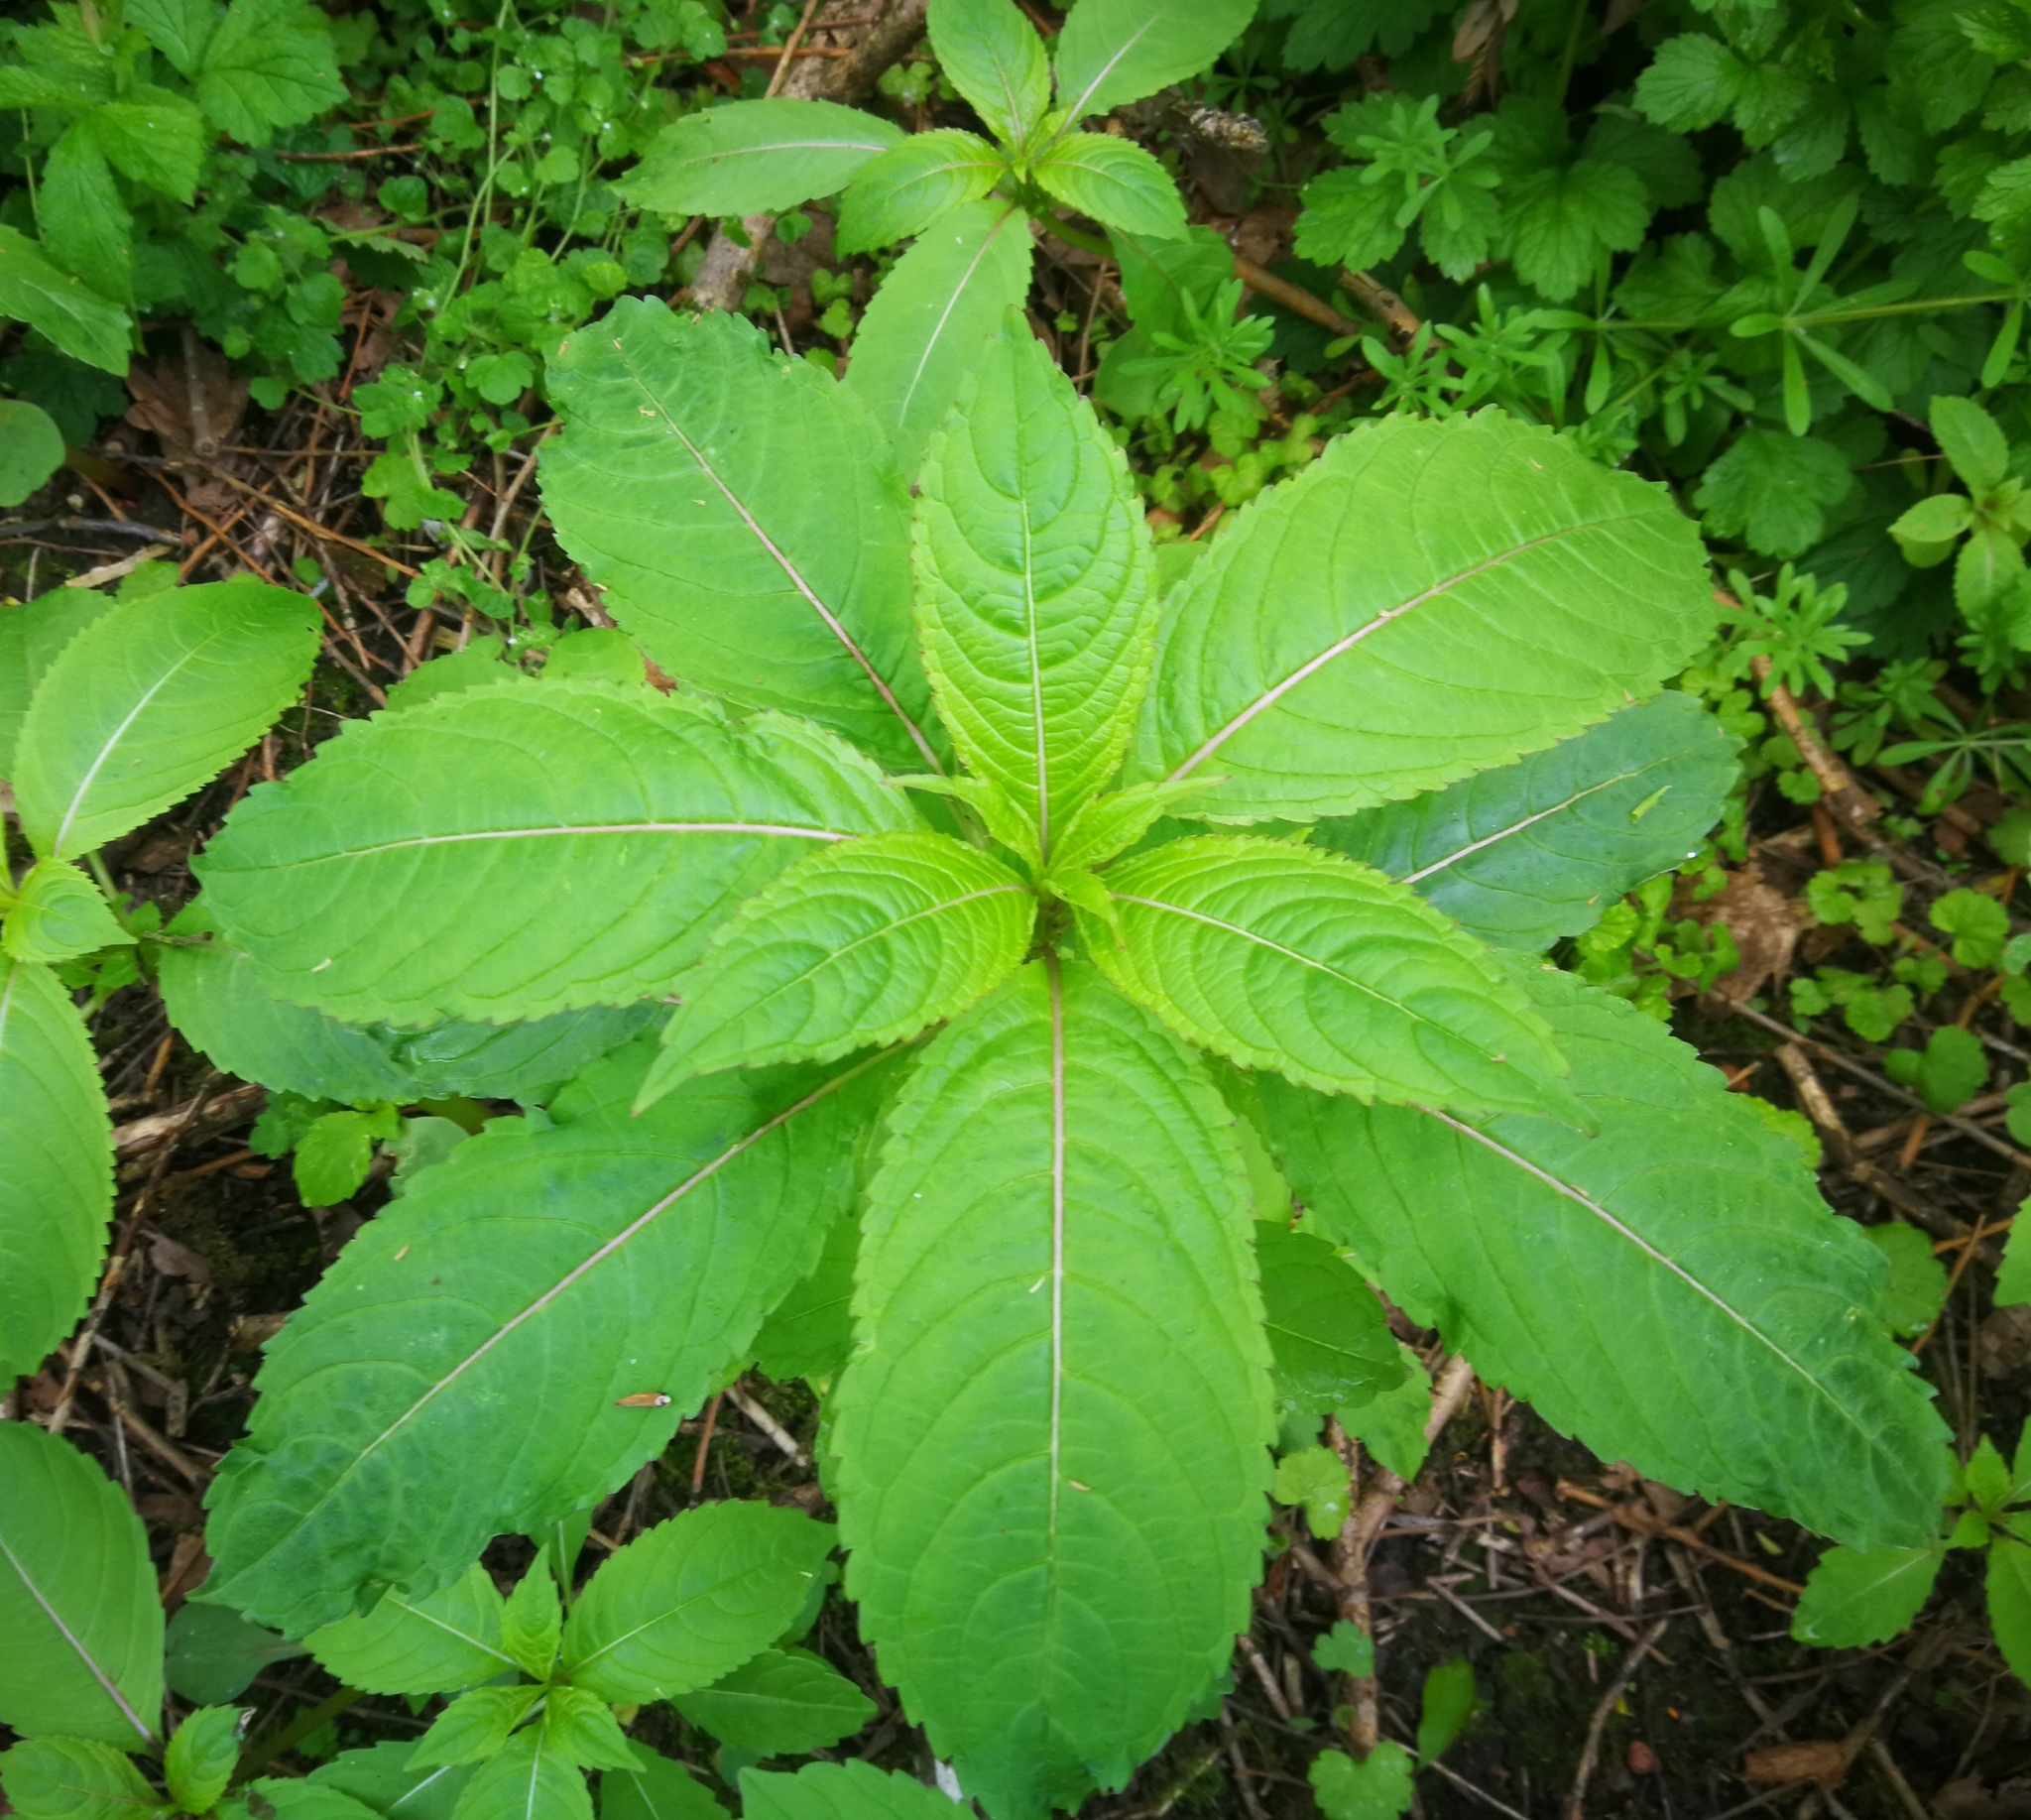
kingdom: Plantae
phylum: Tracheophyta
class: Magnoliopsida
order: Ericales
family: Balsaminaceae
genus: Impatiens
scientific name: Impatiens glandulifera
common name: Himalayan balsam
